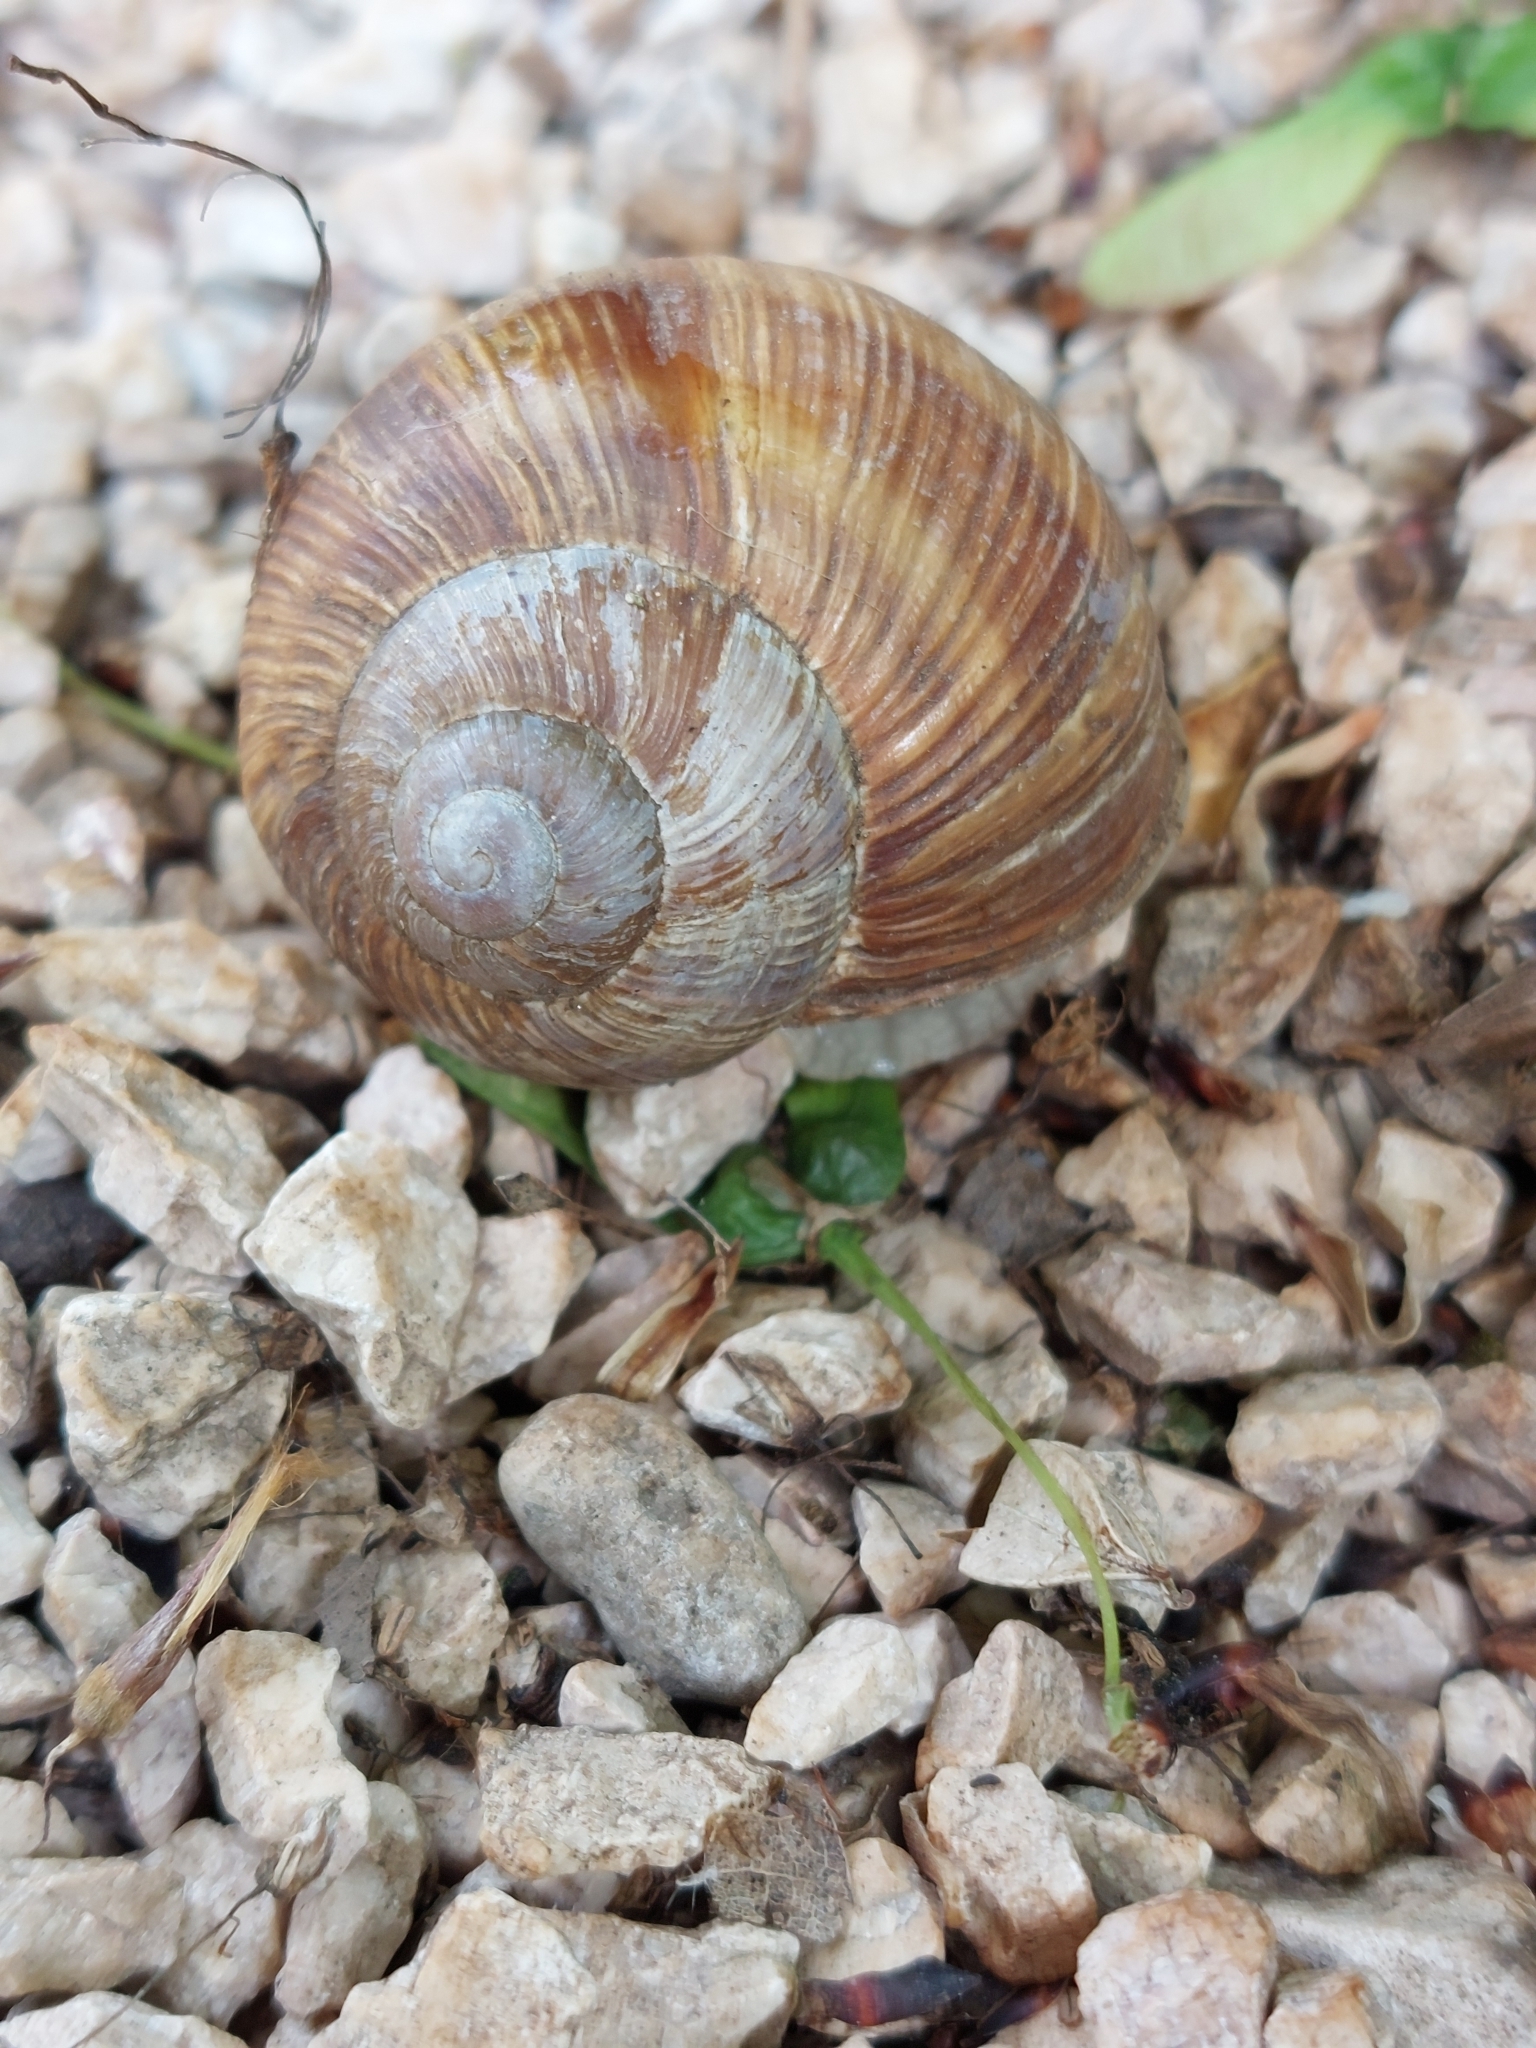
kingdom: Animalia
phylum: Mollusca
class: Gastropoda
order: Stylommatophora
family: Helicidae
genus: Helix
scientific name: Helix pomatia
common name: Roman snail
